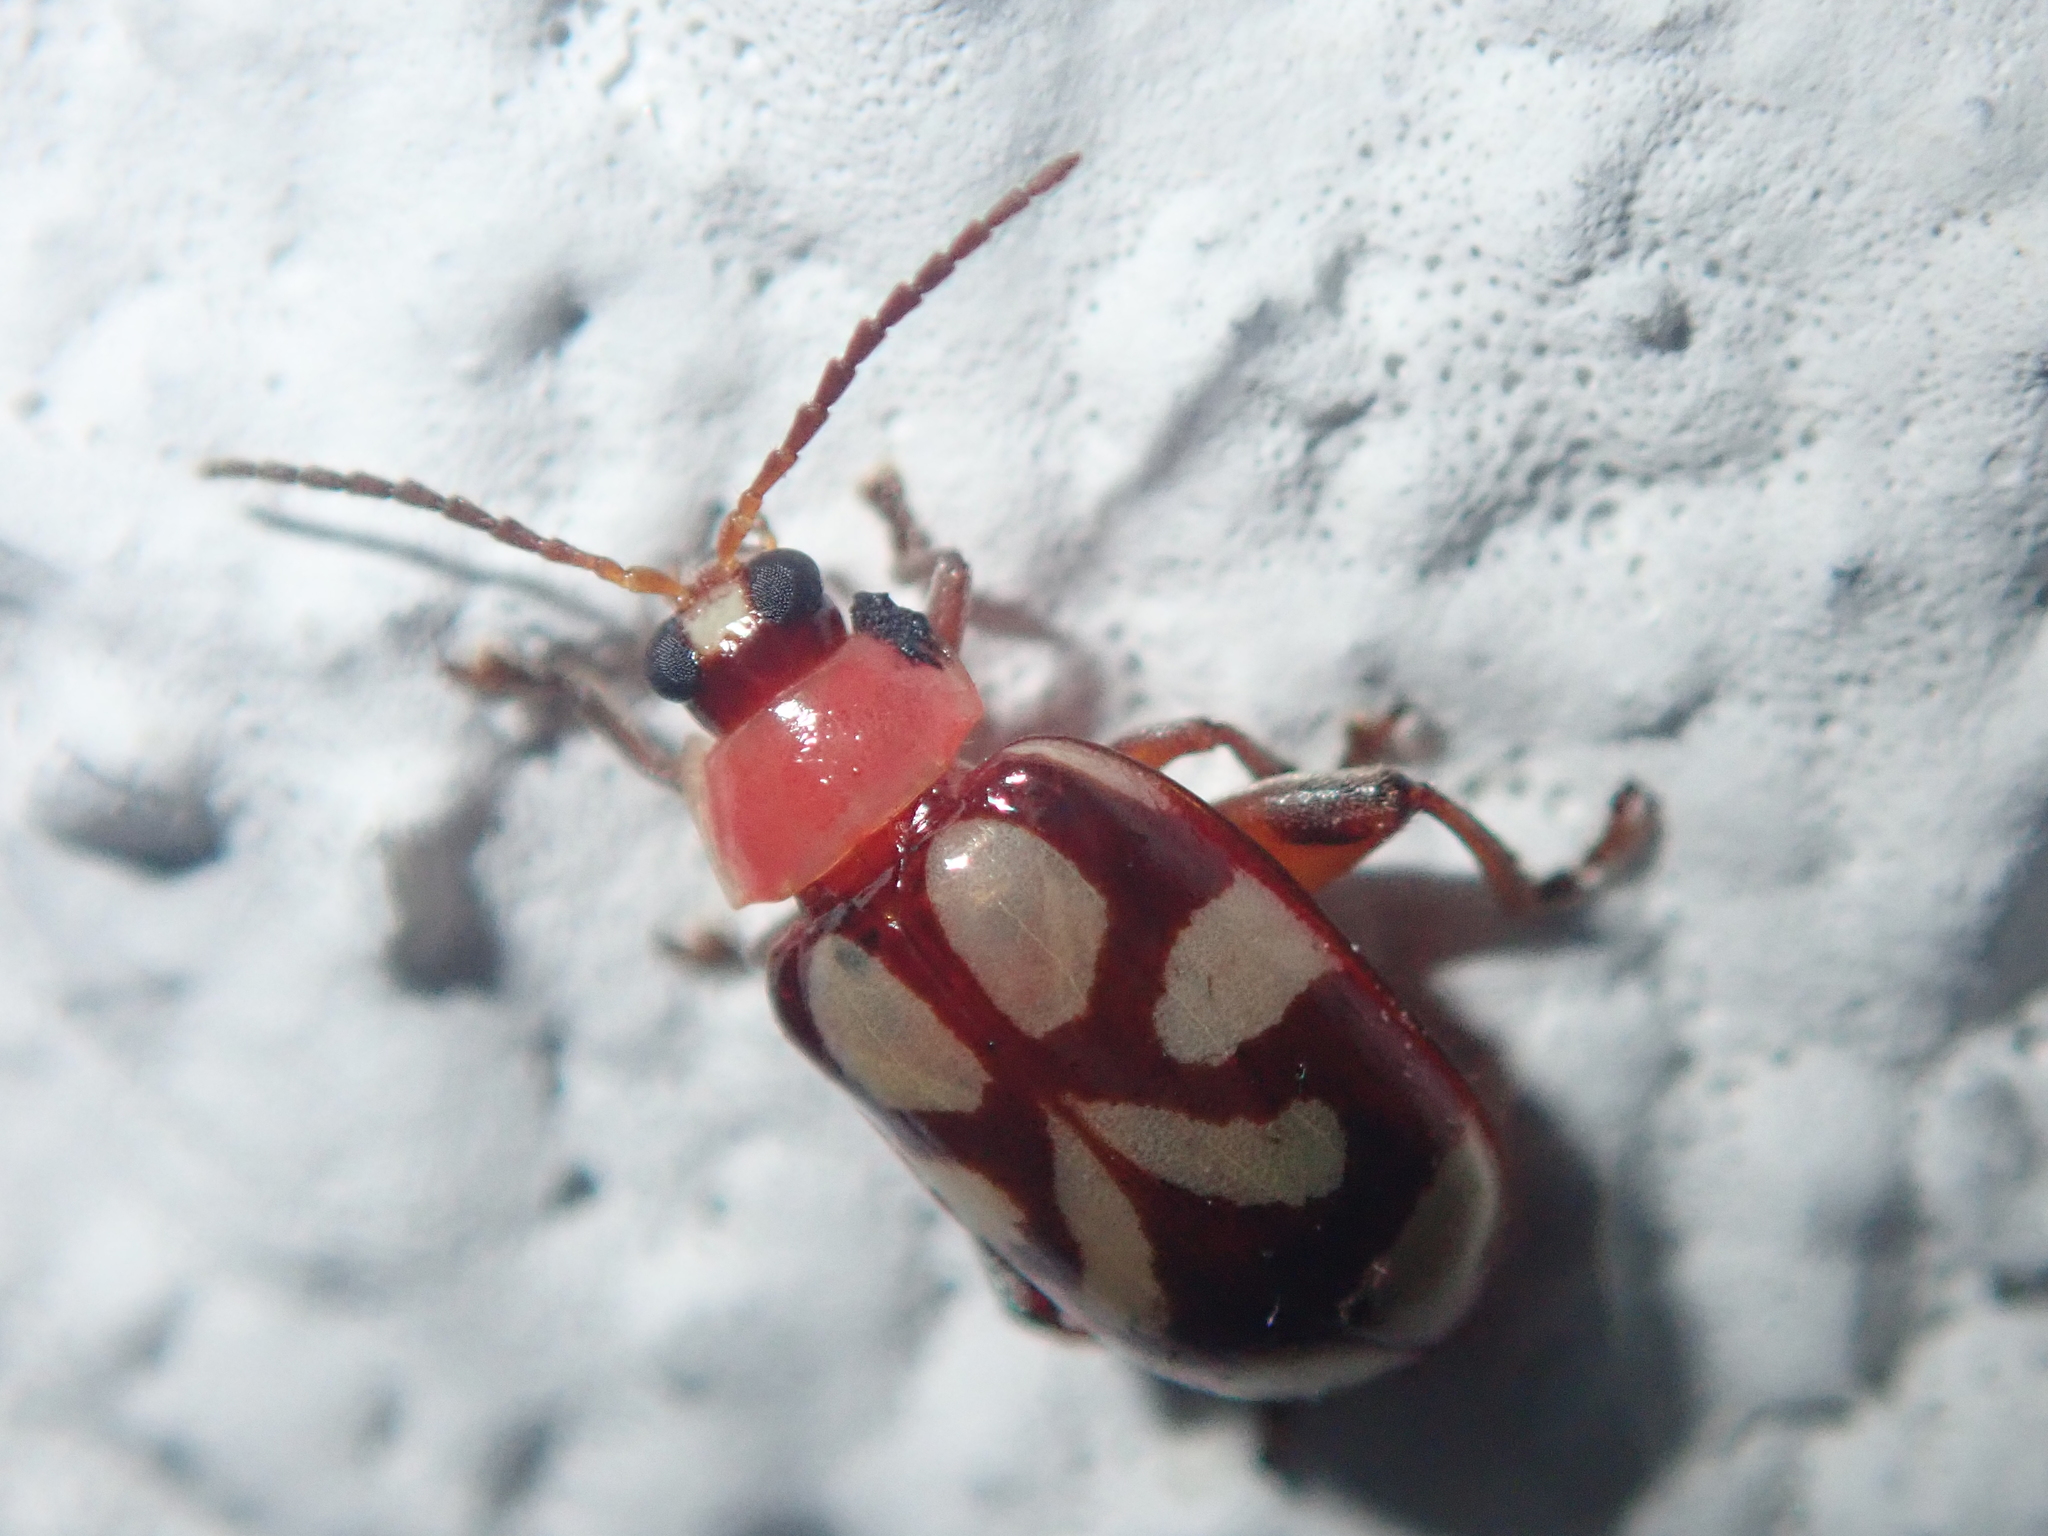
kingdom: Animalia
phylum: Arthropoda
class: Insecta
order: Coleoptera
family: Chrysomelidae
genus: Omophoita
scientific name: Omophoita albicollis
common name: Toensmeier's flea beetle
